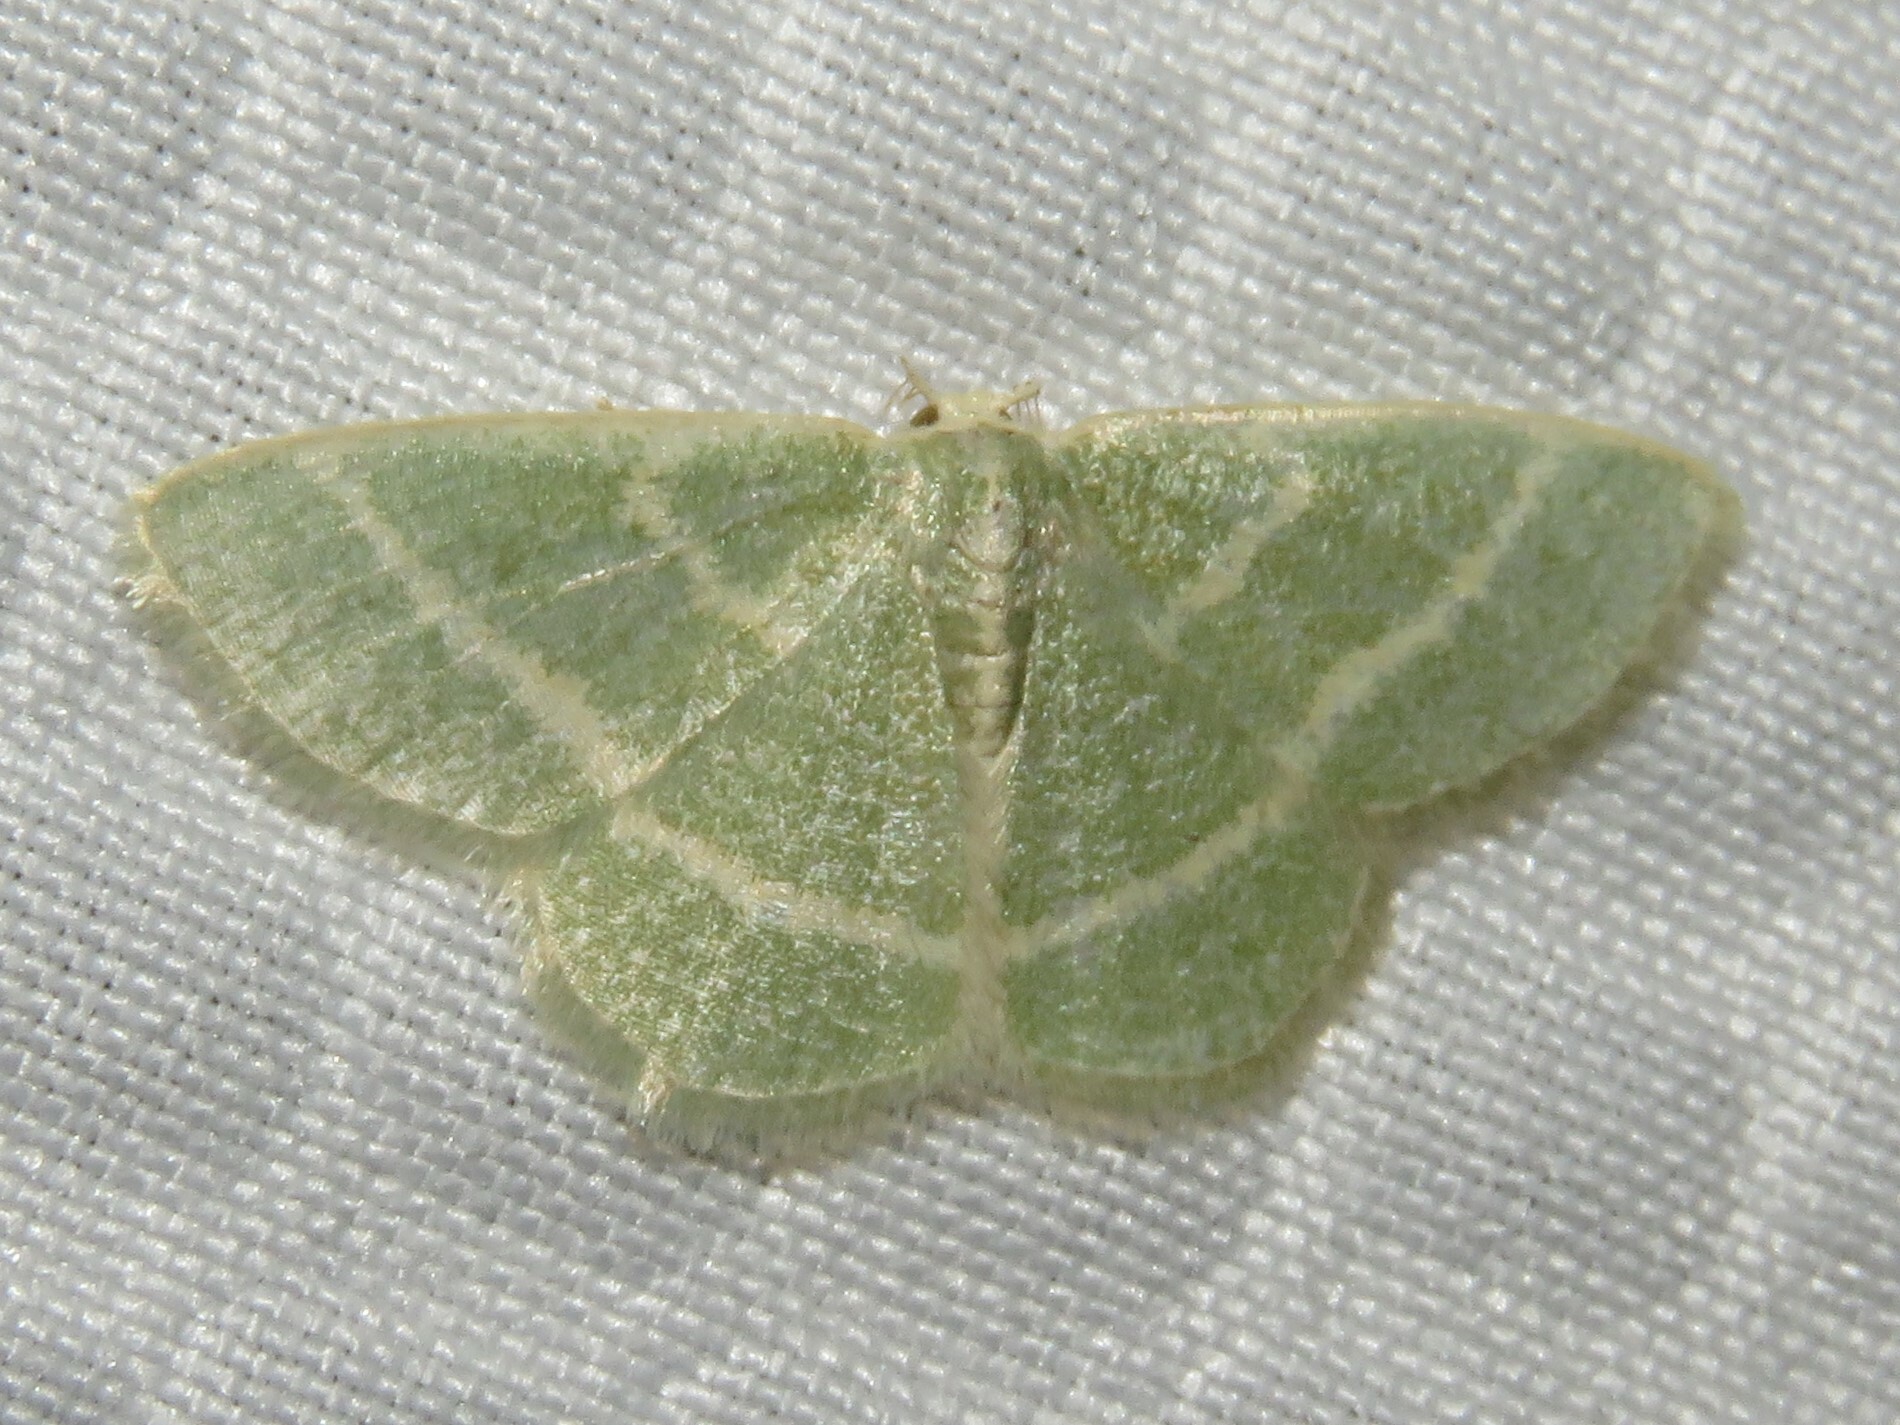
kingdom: Animalia
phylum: Arthropoda
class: Insecta
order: Lepidoptera
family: Geometridae
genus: Chlorochlamys
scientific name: Chlorochlamys chloroleucaria
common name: Blackberry looper
